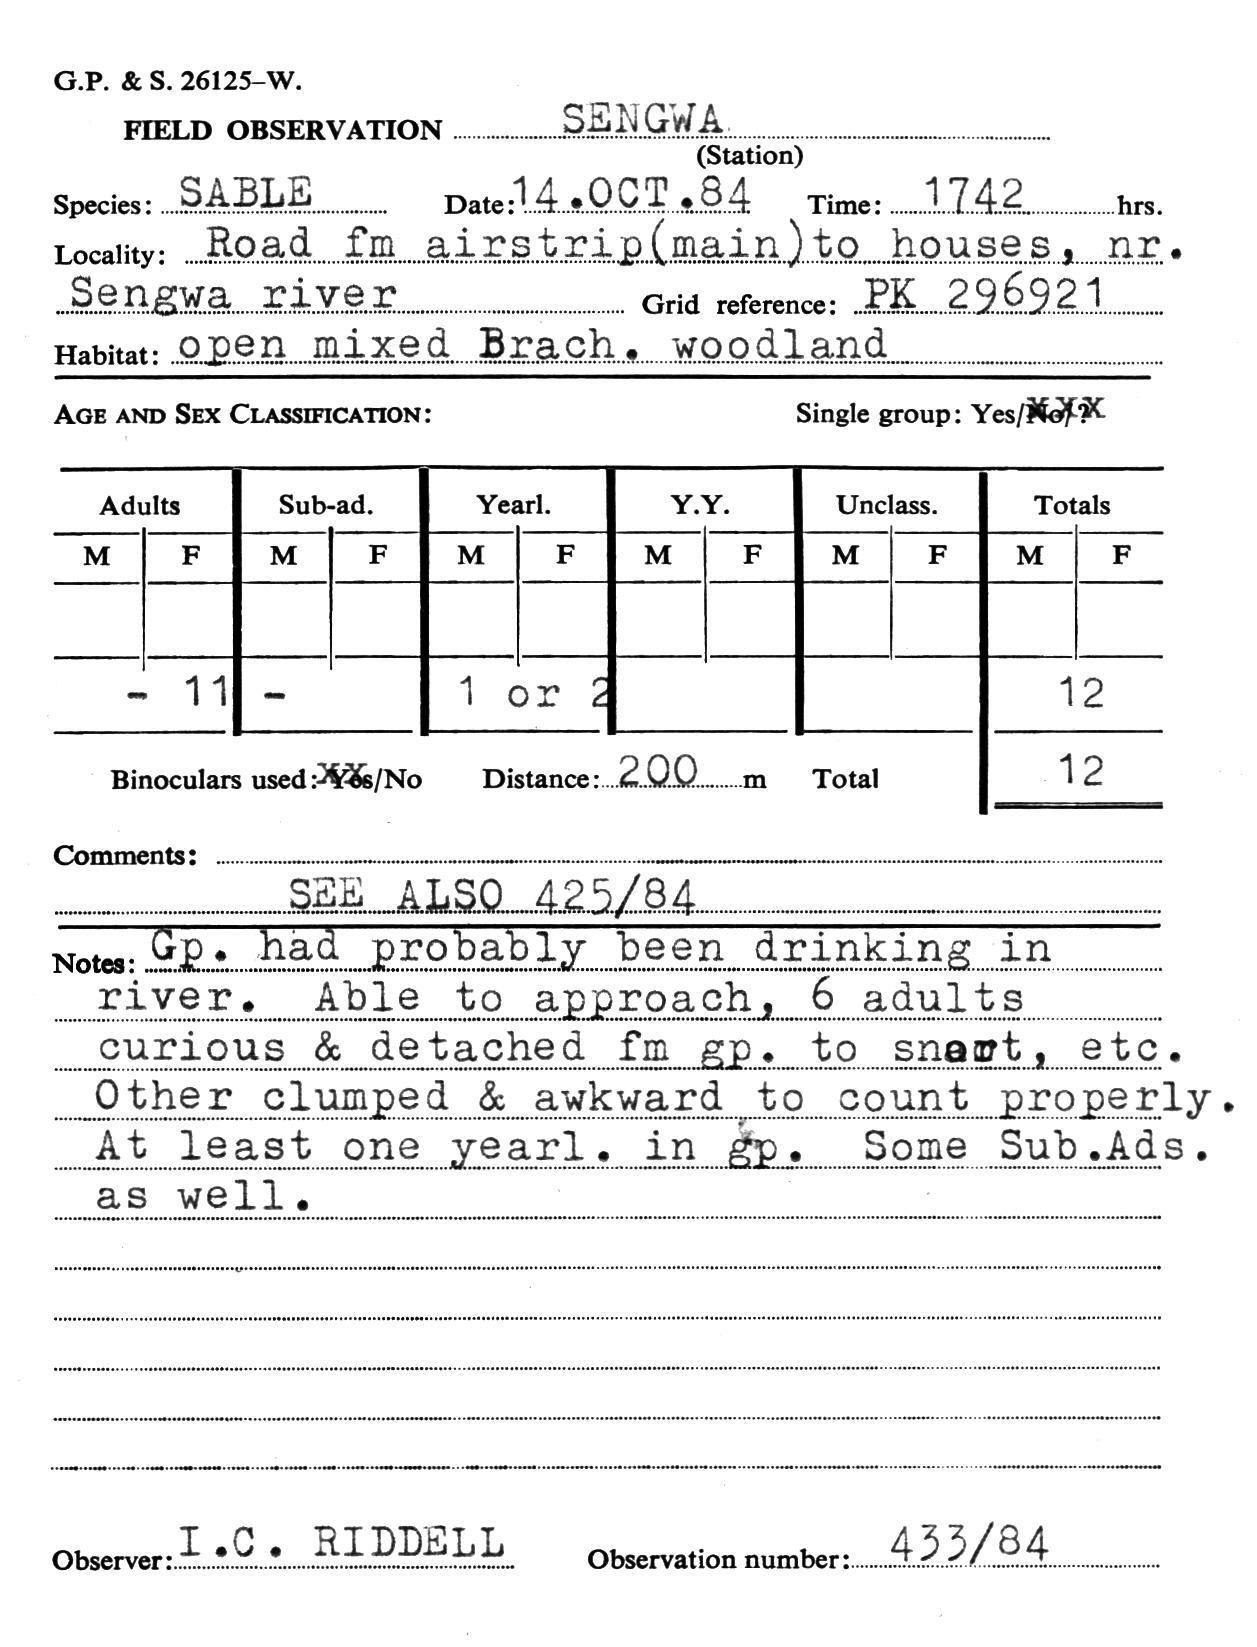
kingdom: Animalia
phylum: Chordata
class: Mammalia
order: Artiodactyla
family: Bovidae
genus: Hippotragus
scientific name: Hippotragus niger
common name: Sable antelope
